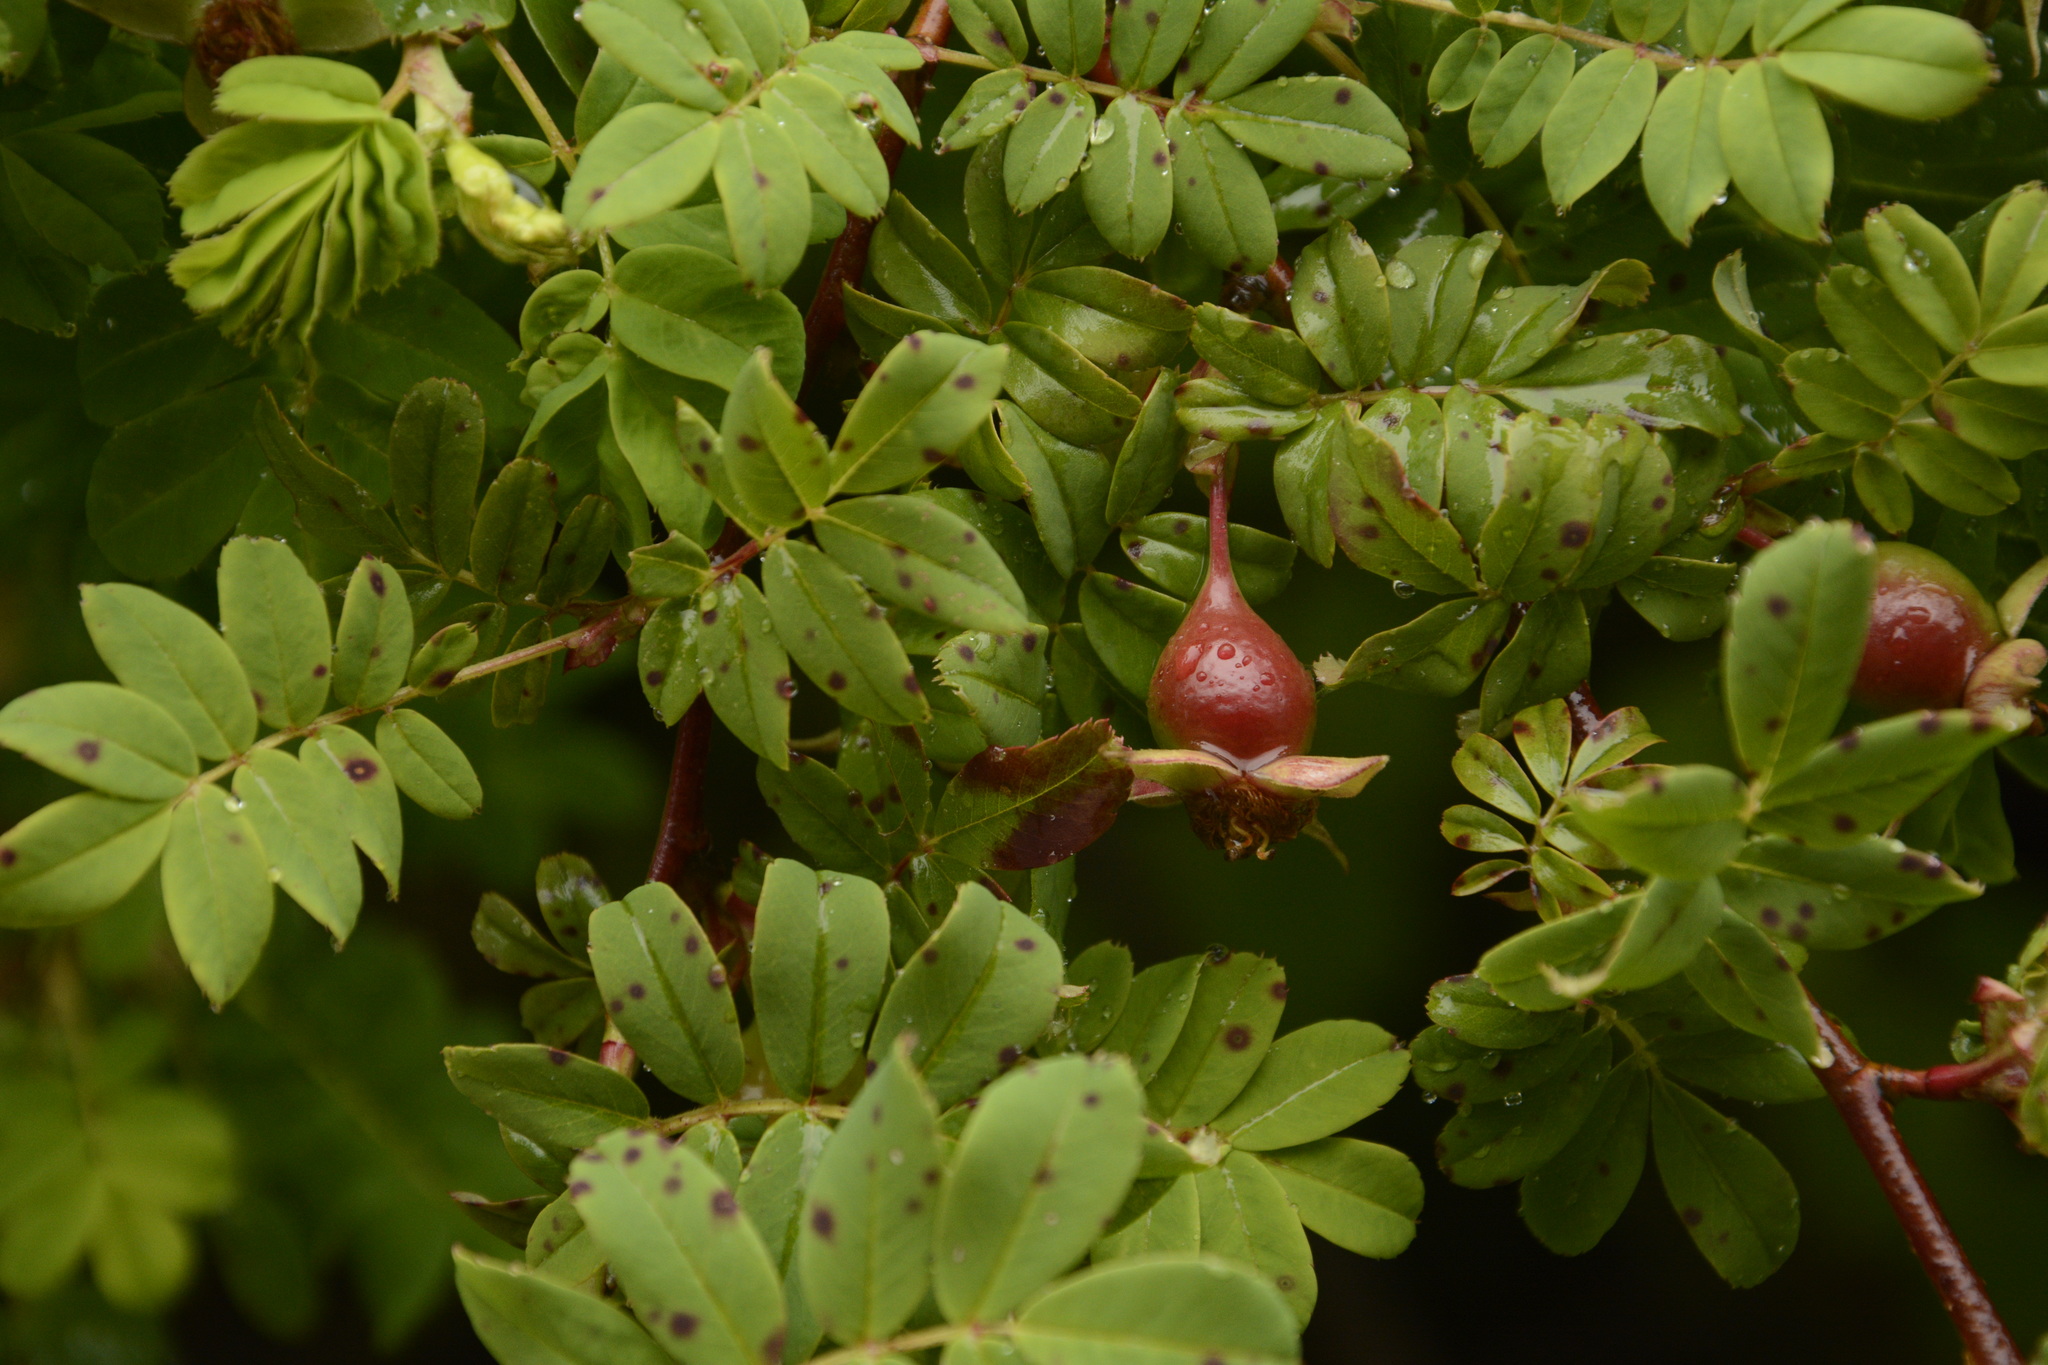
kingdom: Plantae
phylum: Tracheophyta
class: Magnoliopsida
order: Rosales
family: Rosaceae
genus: Rosa
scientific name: Rosa sericea
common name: Silky rose
